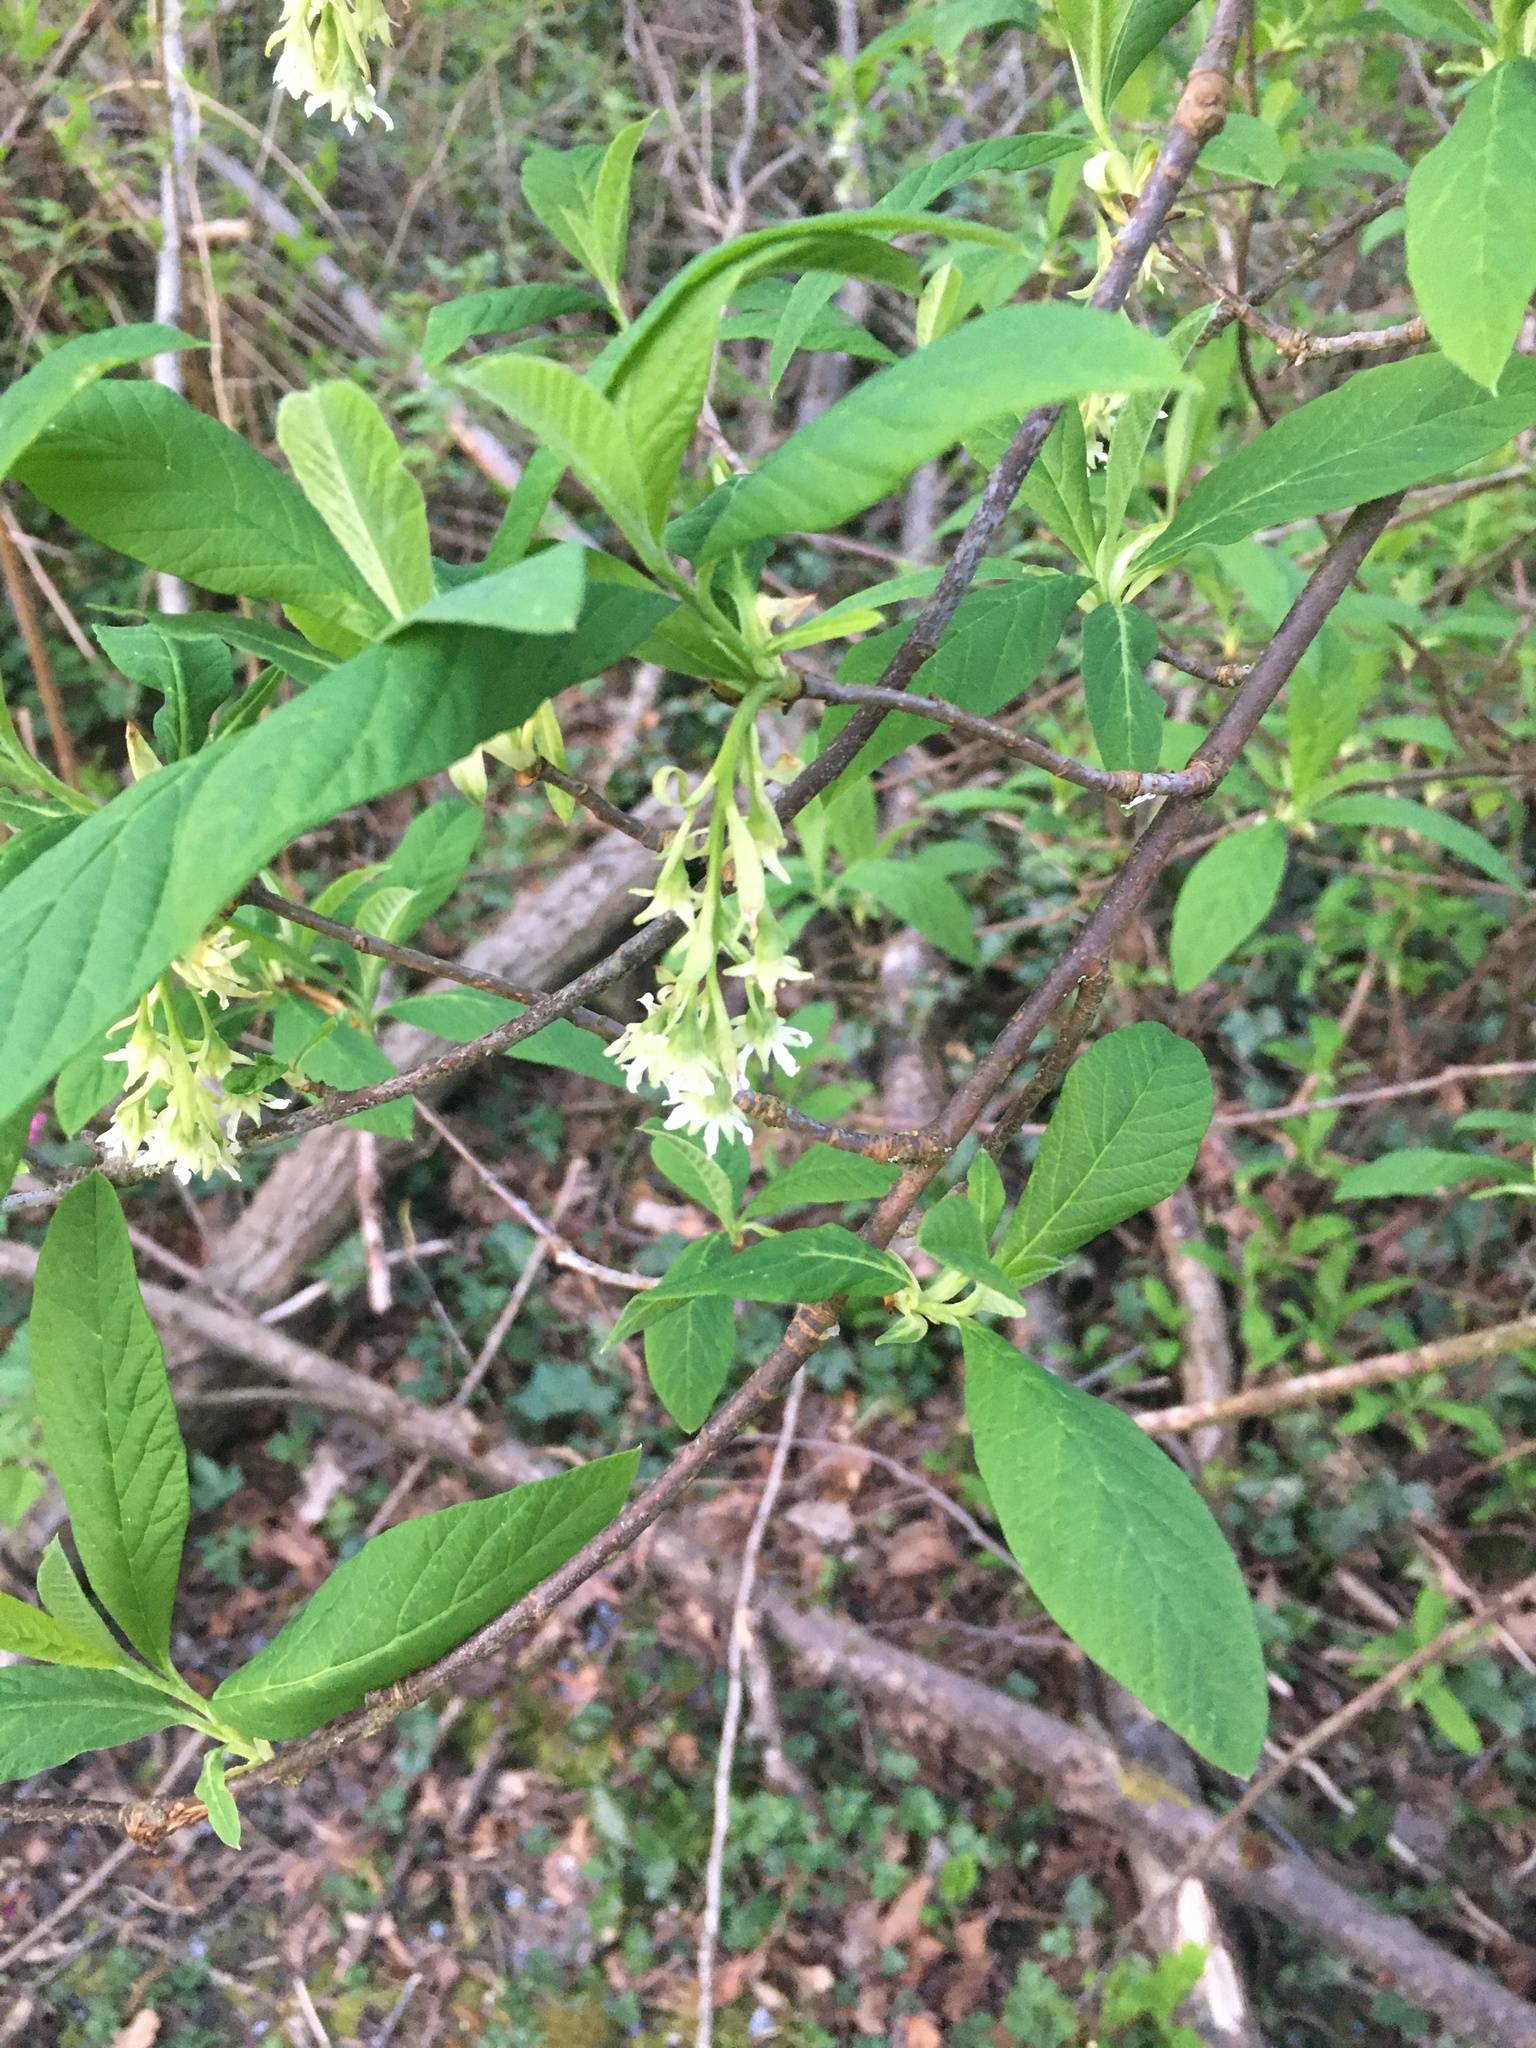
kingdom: Plantae
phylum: Tracheophyta
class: Magnoliopsida
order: Rosales
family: Rosaceae
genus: Oemleria
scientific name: Oemleria cerasiformis
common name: Osoberry
